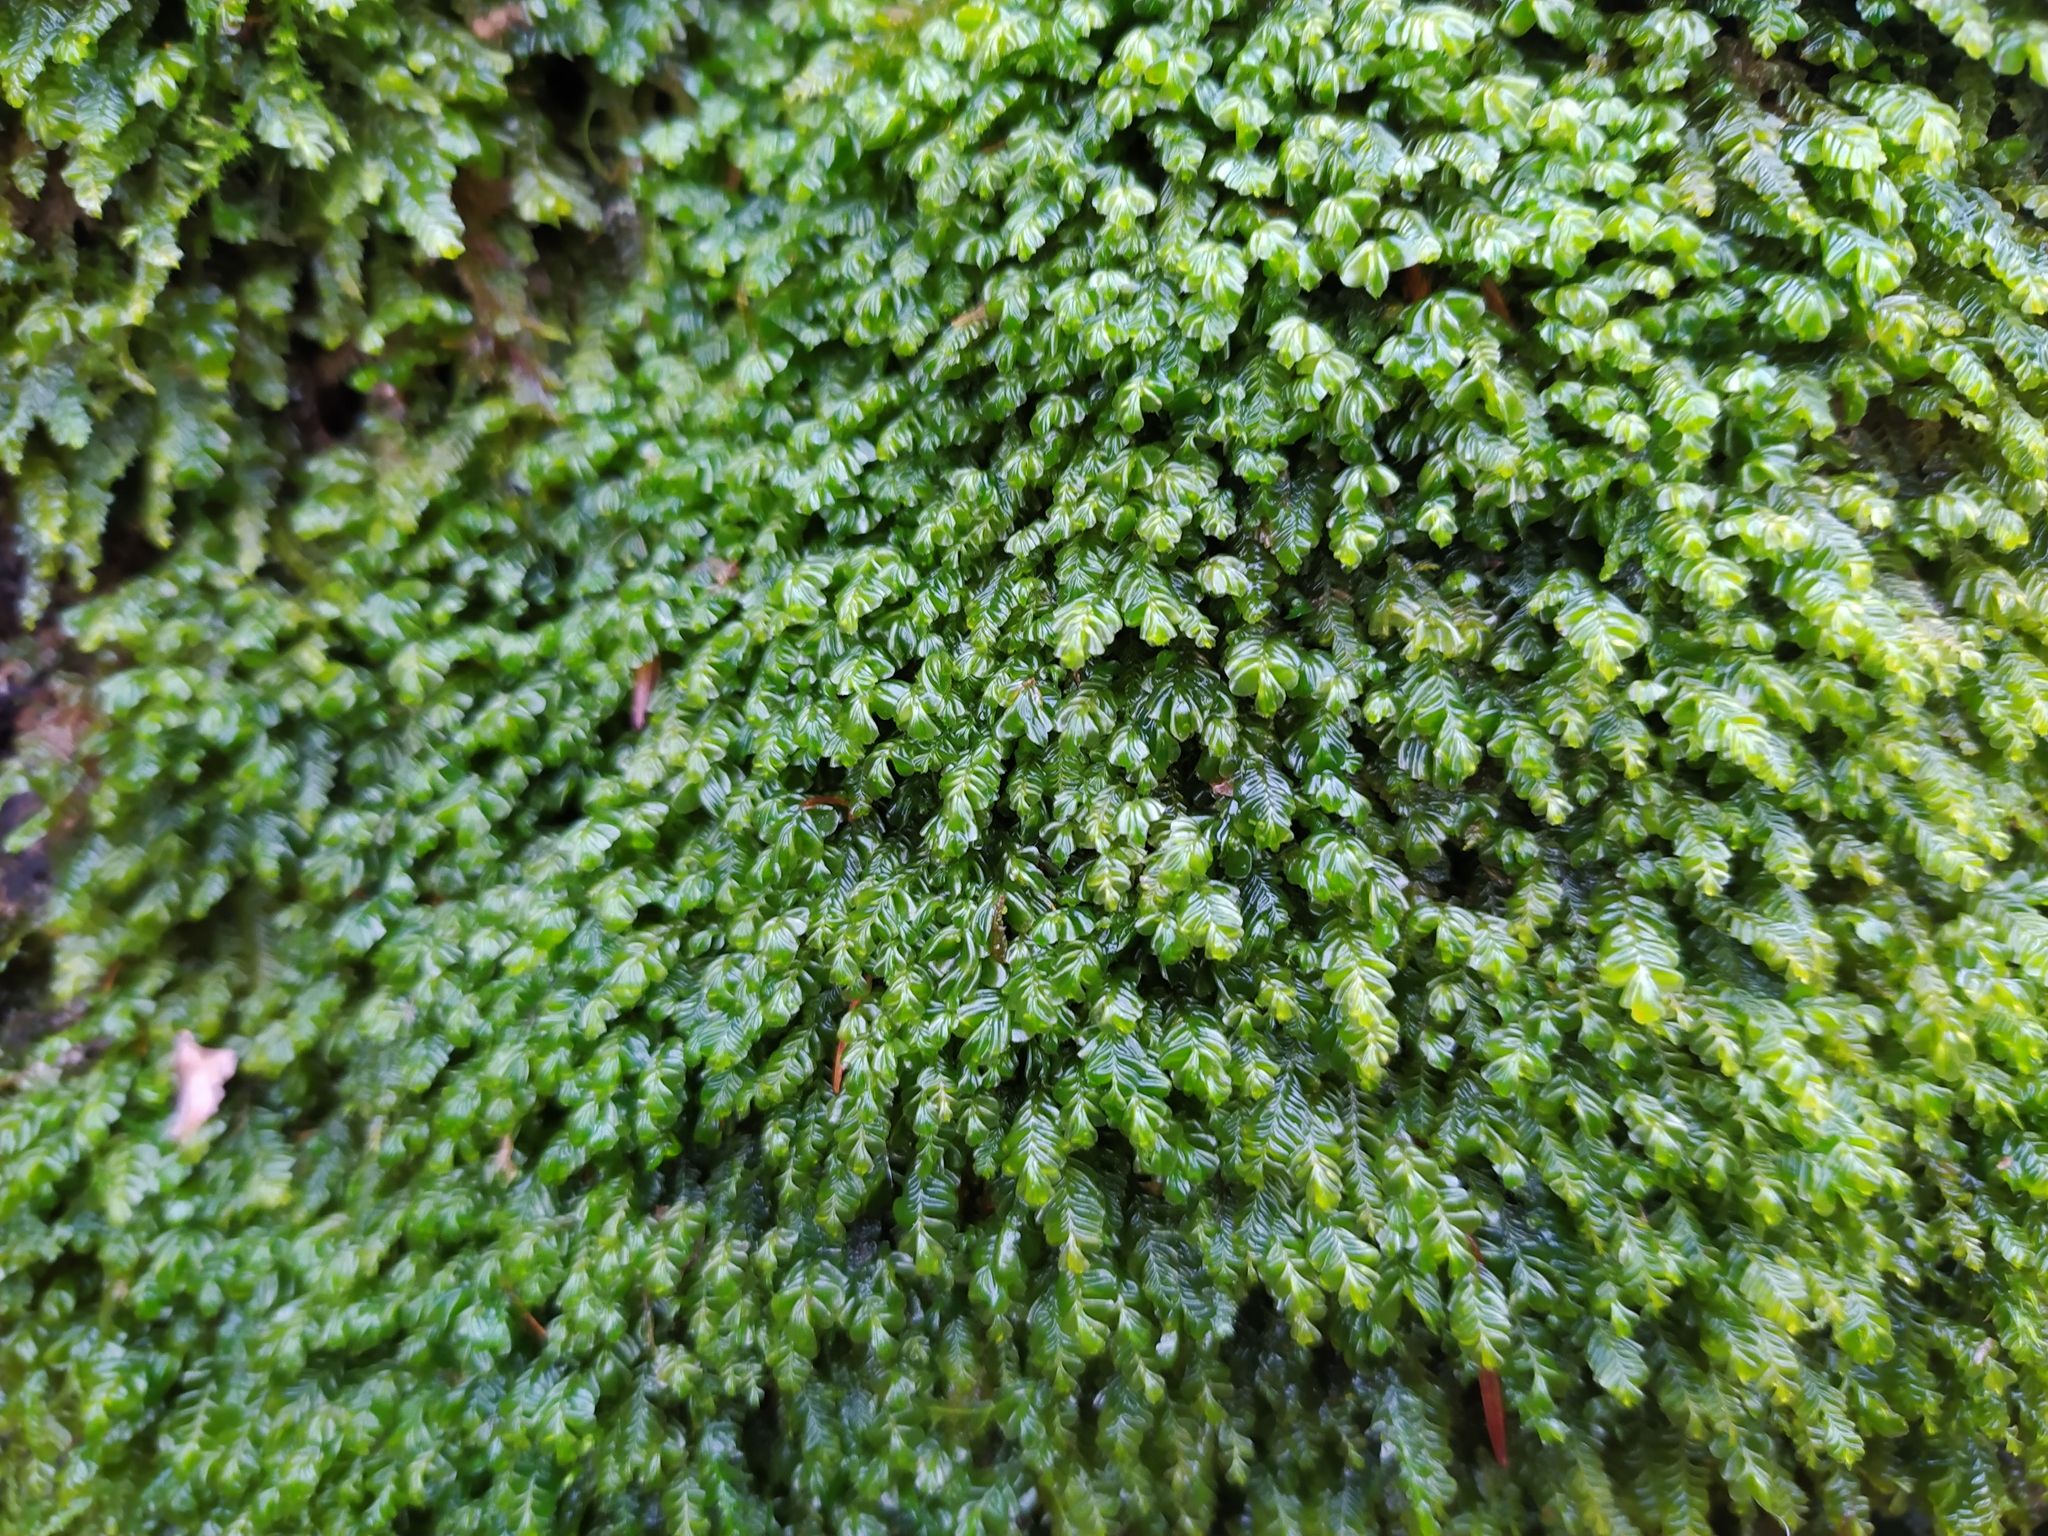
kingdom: Plantae
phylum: Marchantiophyta
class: Jungermanniopsida
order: Jungermanniales
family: Plagiochilaceae
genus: Plagiochila
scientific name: Plagiochila porelloides
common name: Lesser featherwort
